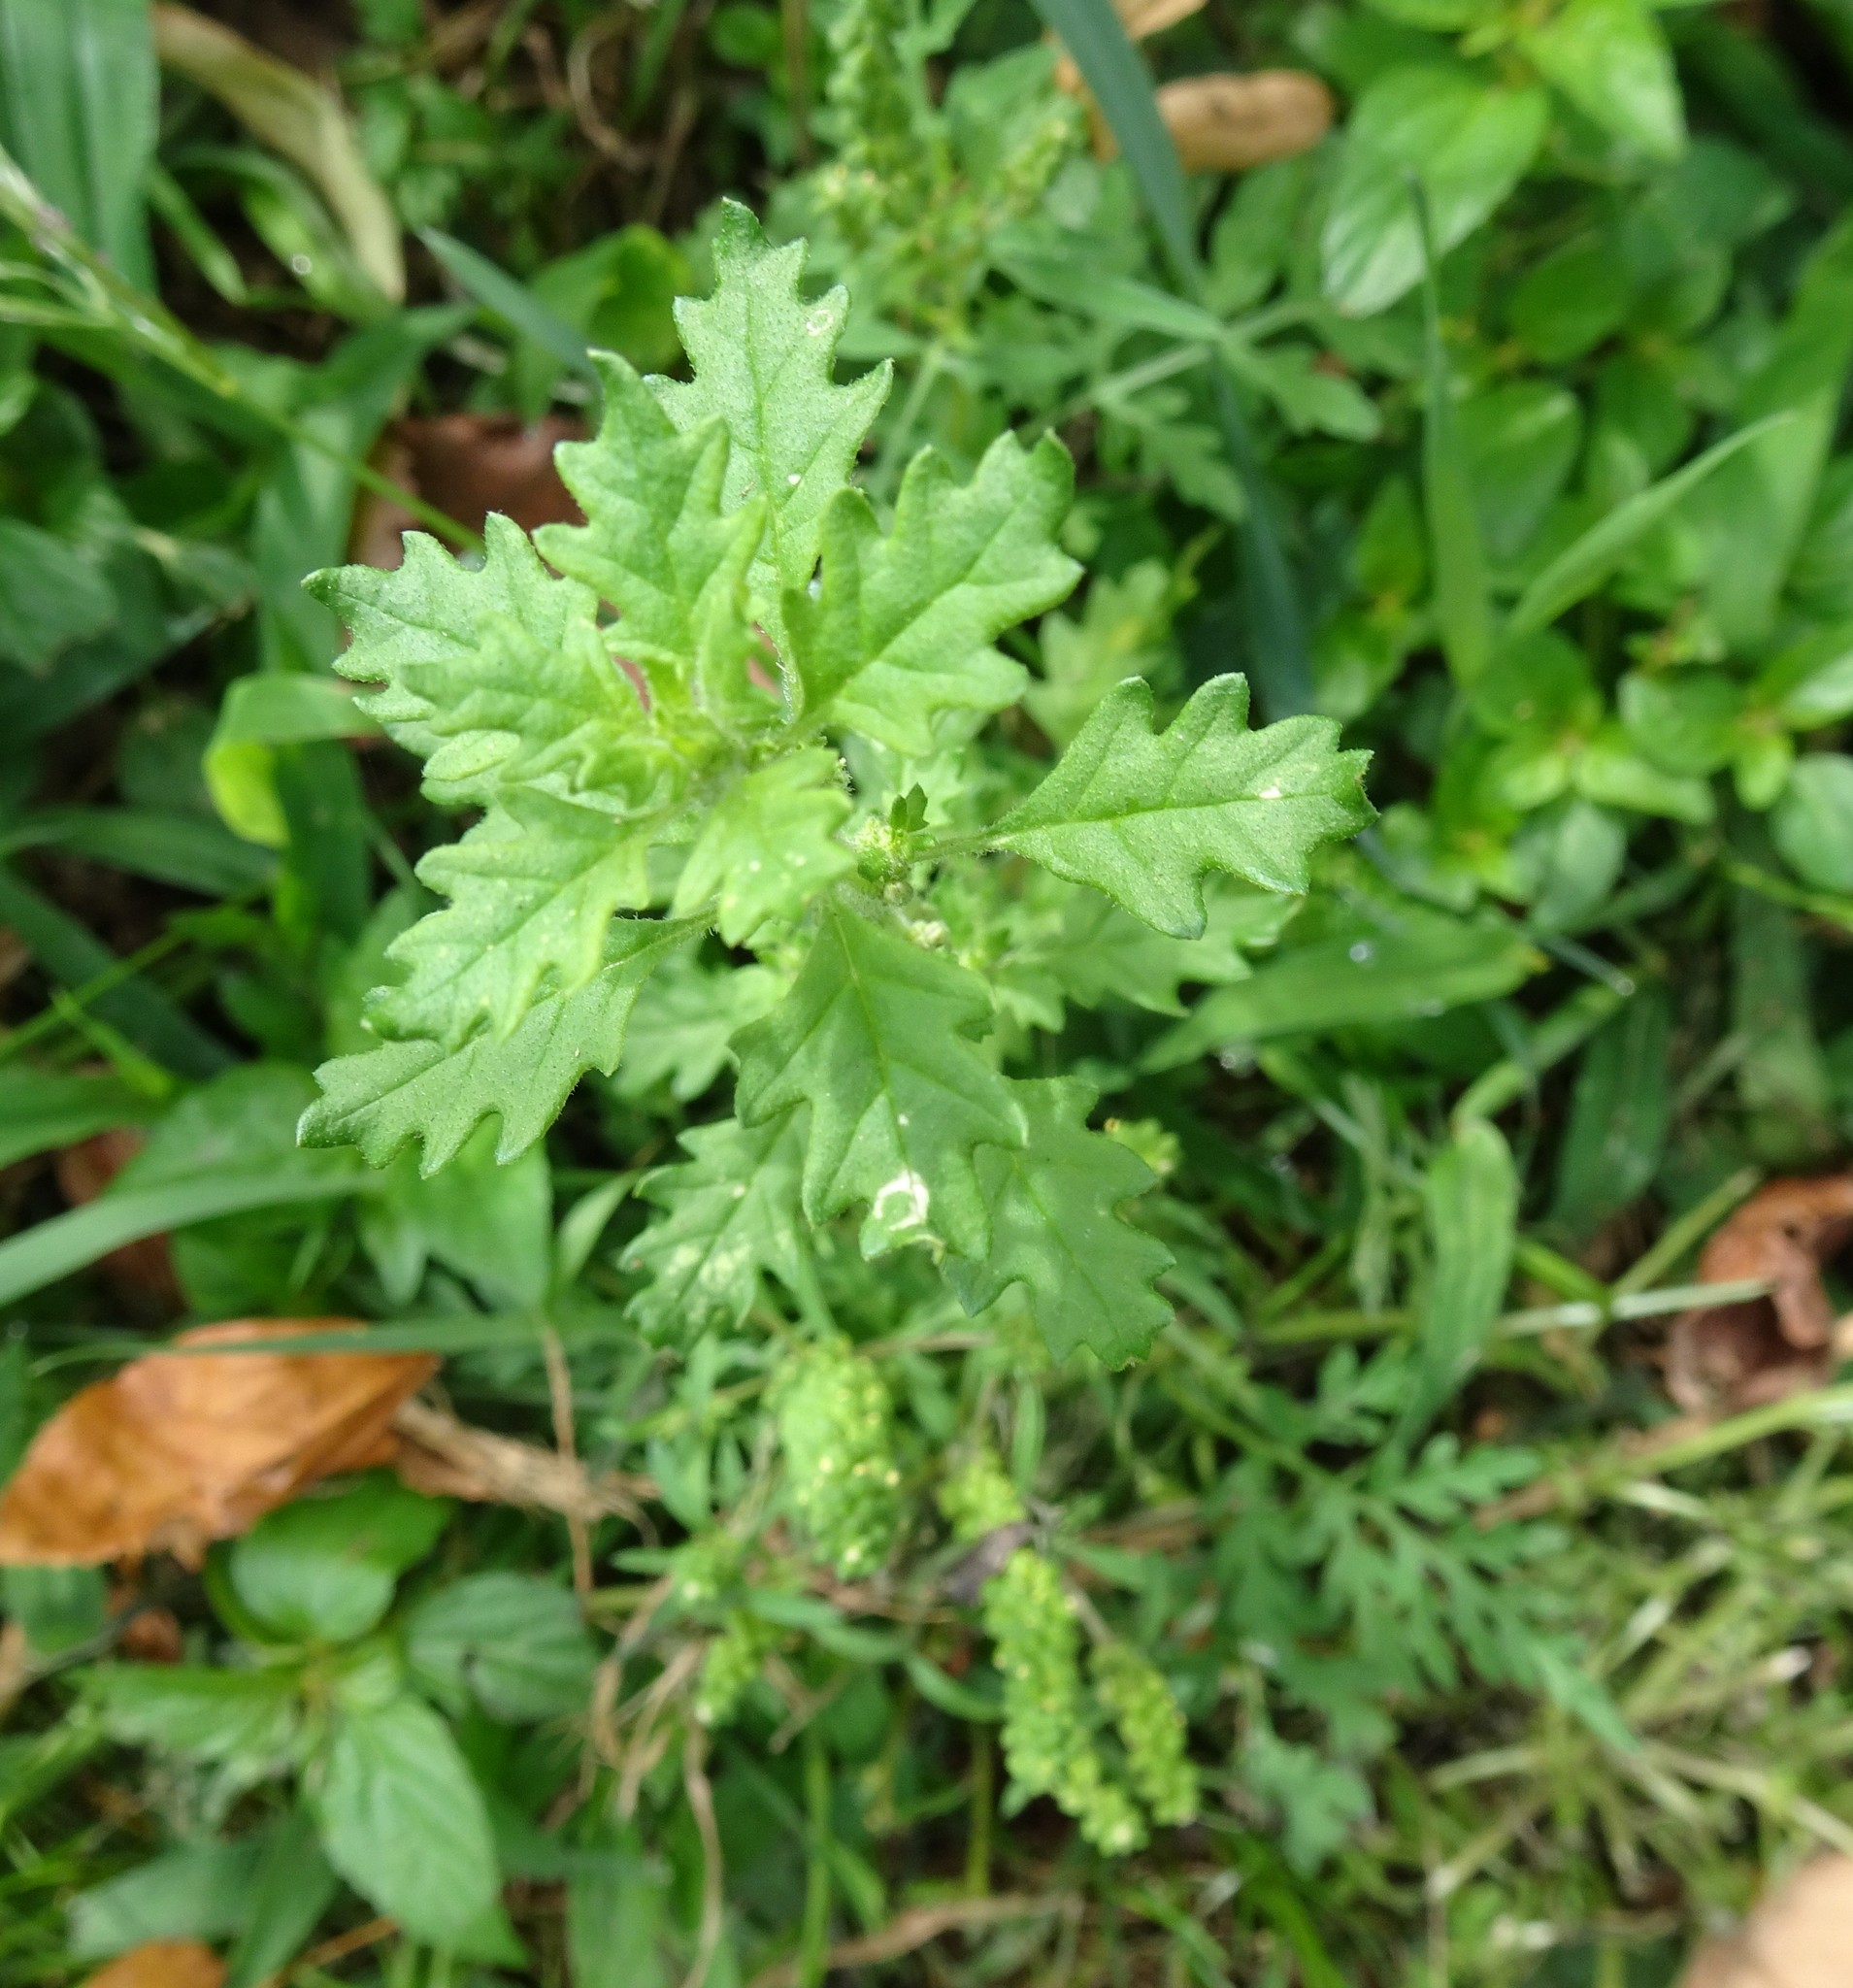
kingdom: Plantae
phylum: Tracheophyta
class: Magnoliopsida
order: Caryophyllales
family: Amaranthaceae
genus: Dysphania
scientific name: Dysphania pumilio
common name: Clammy goosefoot
